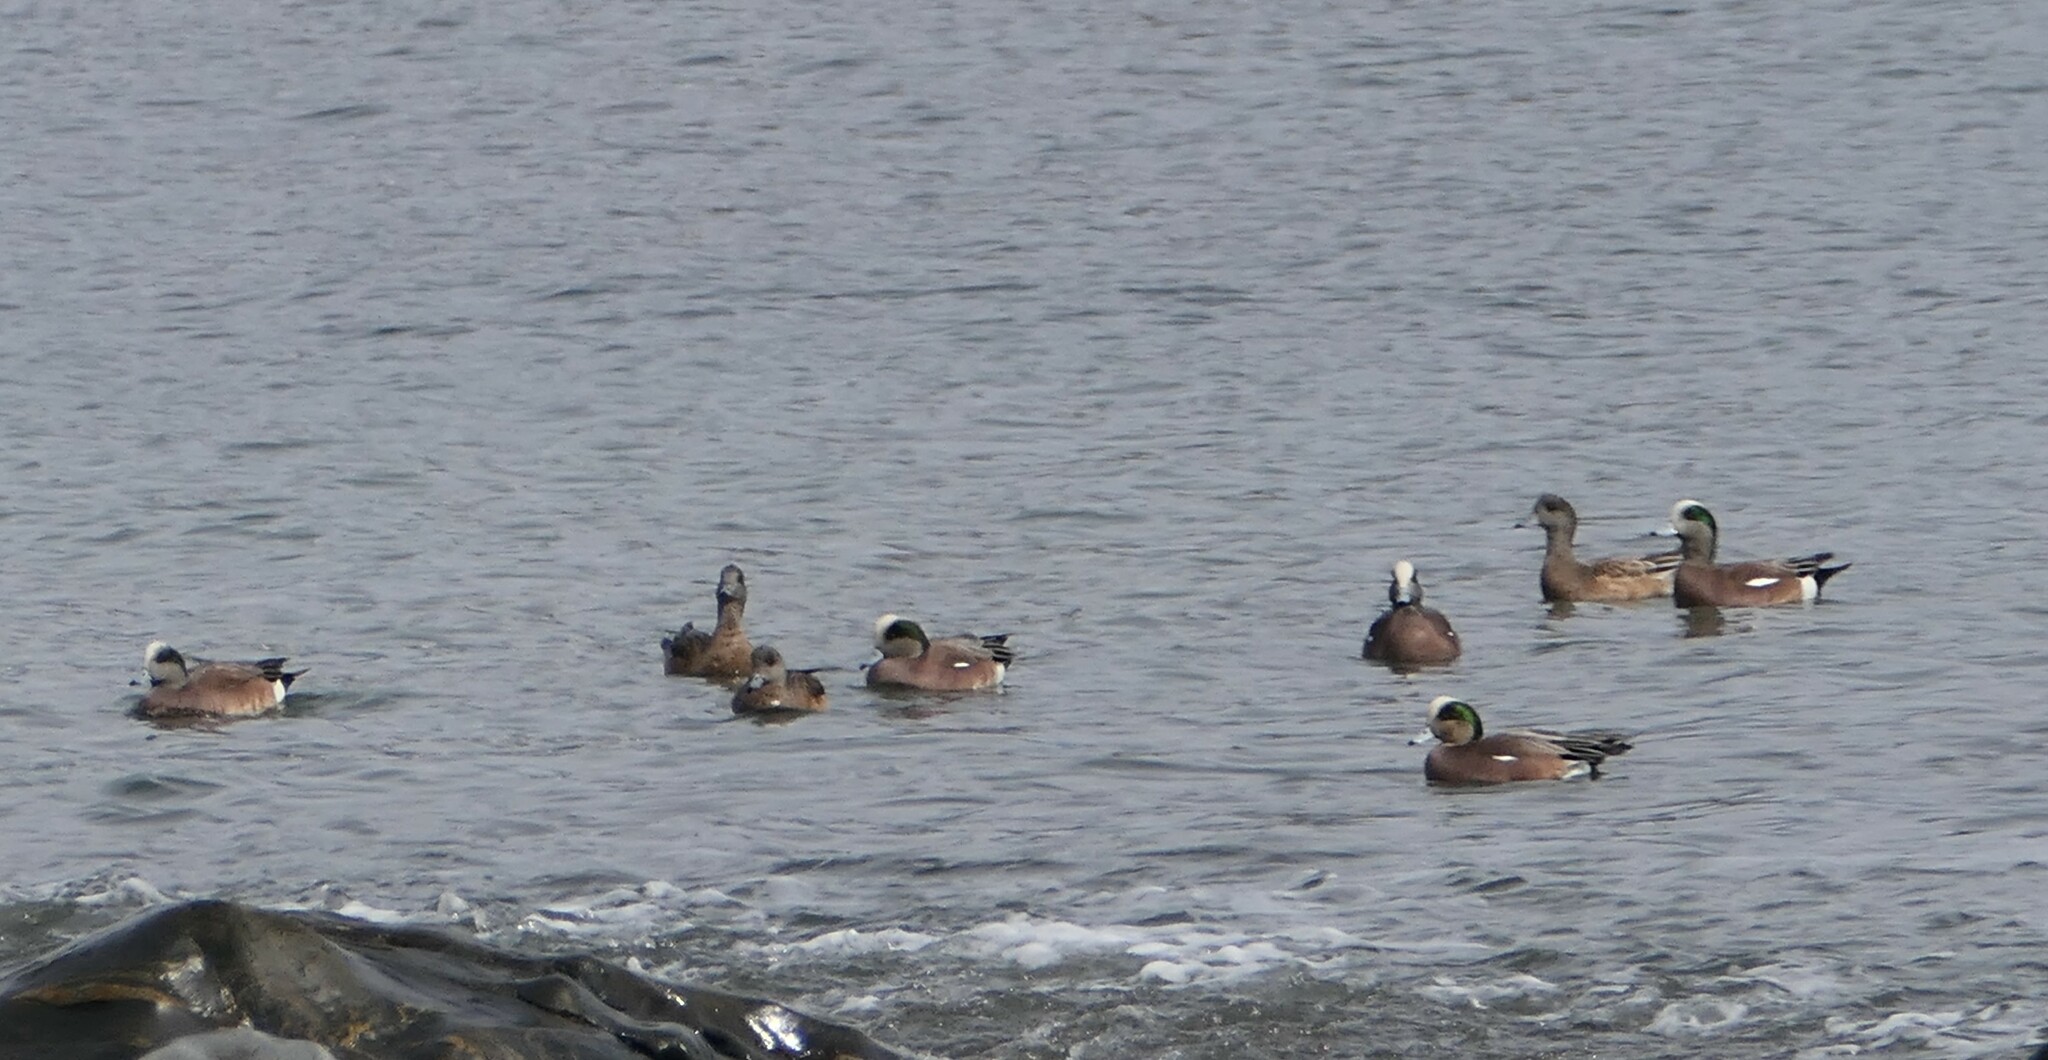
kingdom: Animalia
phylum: Chordata
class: Aves
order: Anseriformes
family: Anatidae
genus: Mareca
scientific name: Mareca americana
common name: American wigeon
